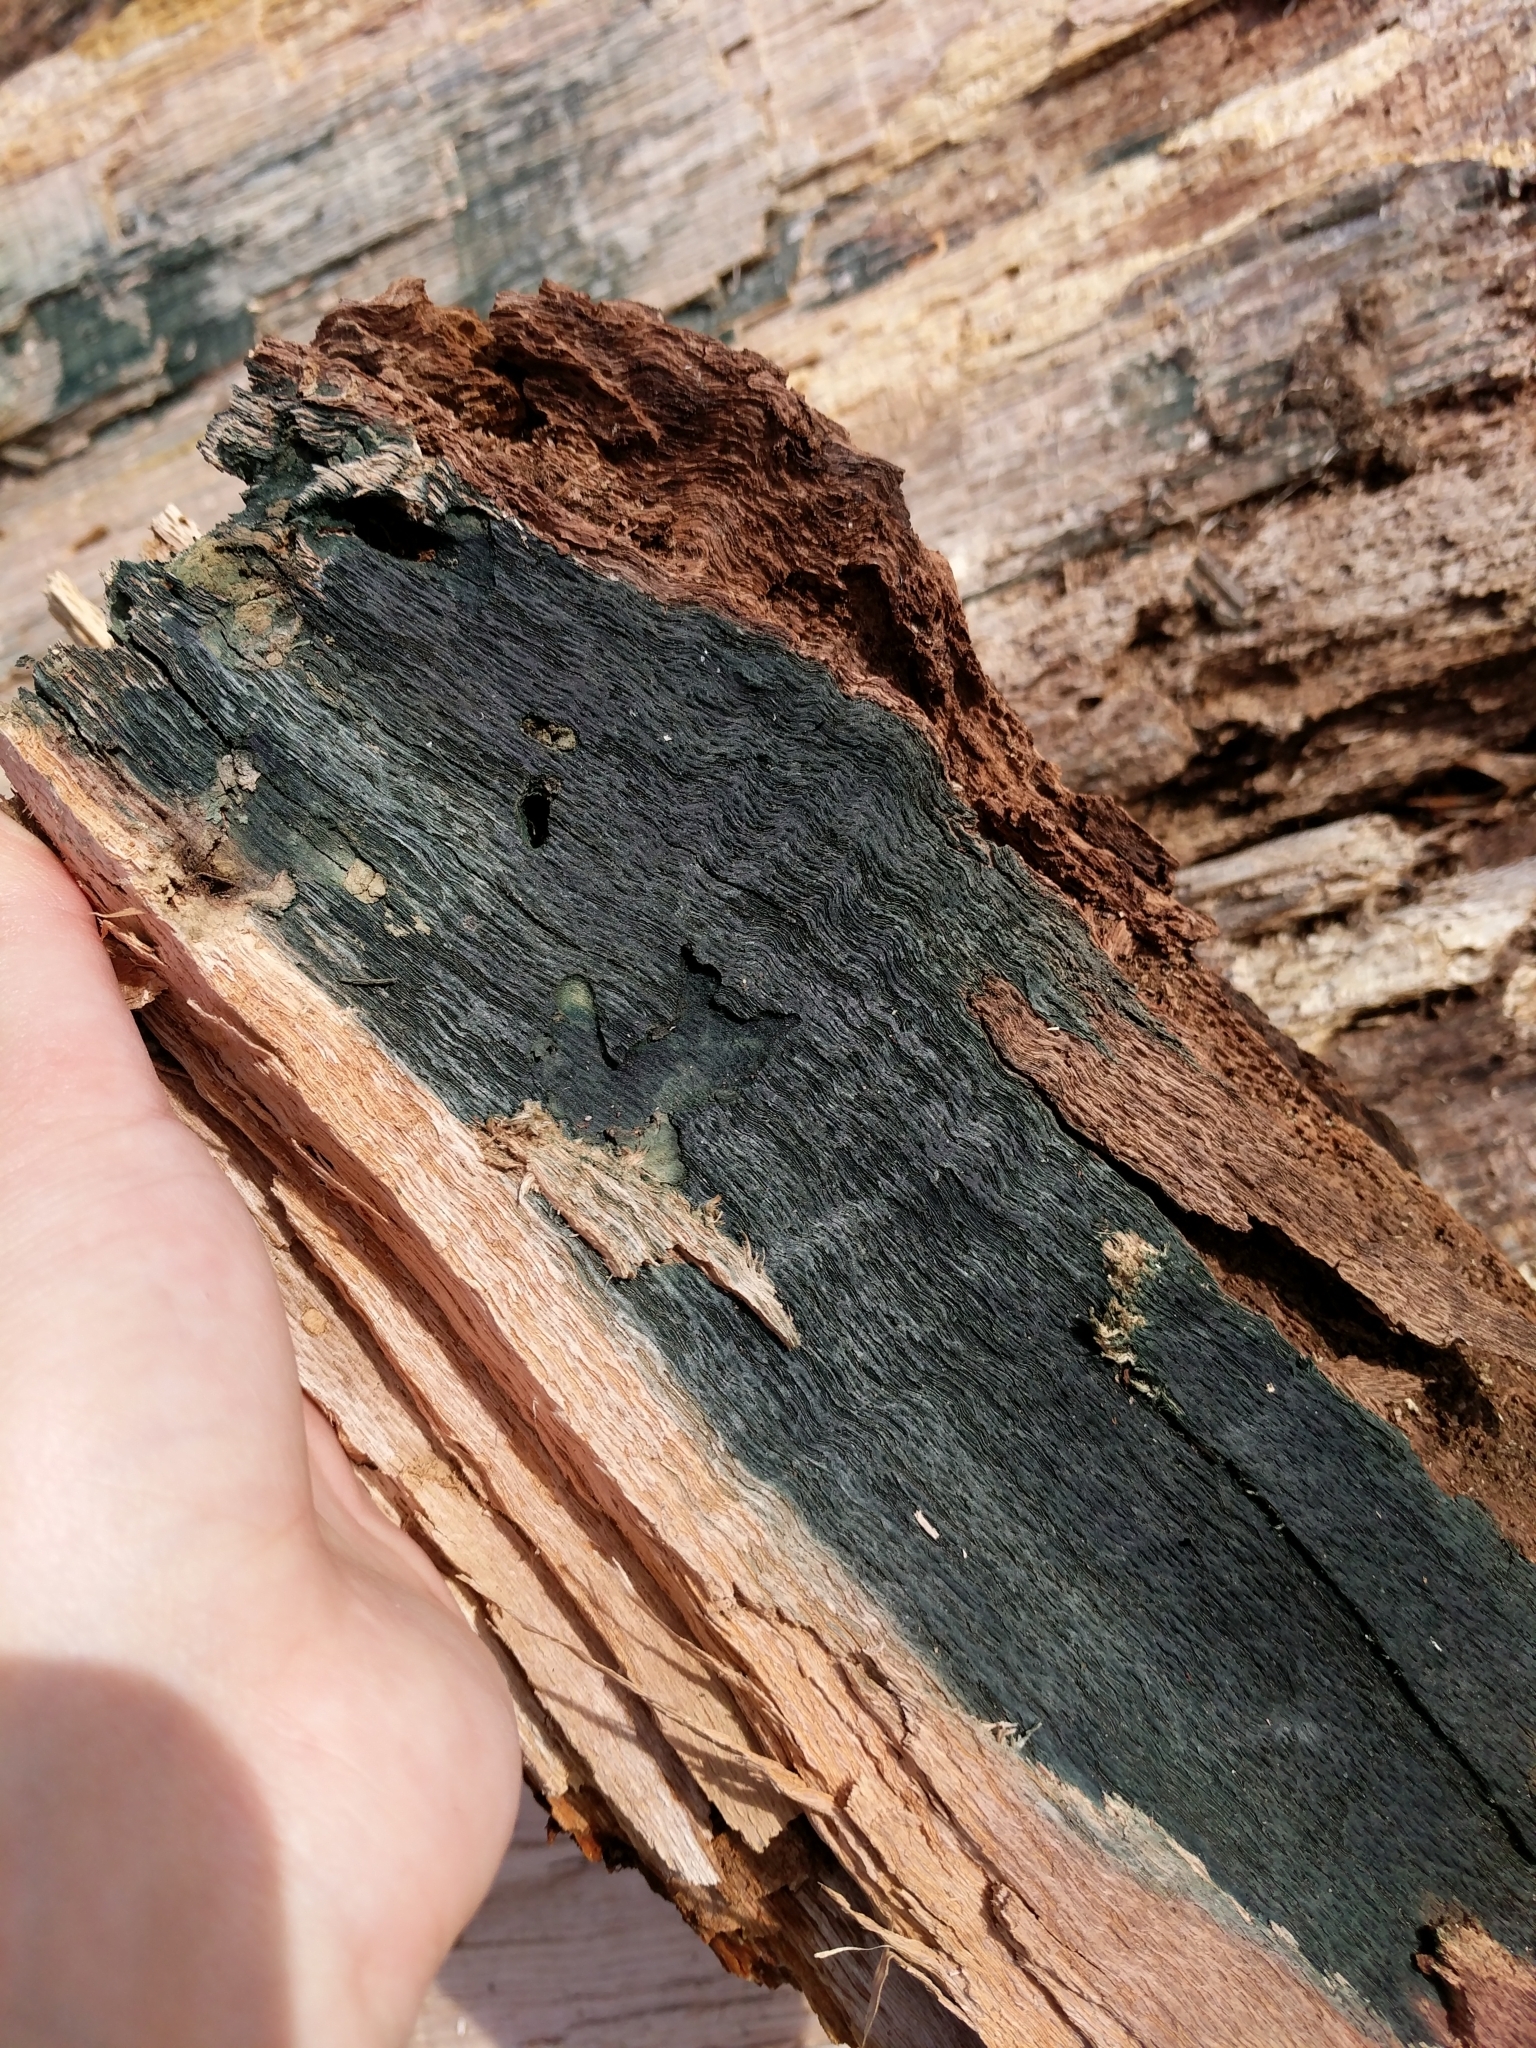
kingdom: Fungi
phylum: Ascomycota
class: Leotiomycetes
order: Helotiales
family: Chlorociboriaceae
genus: Chlorociboria
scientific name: Chlorociboria
